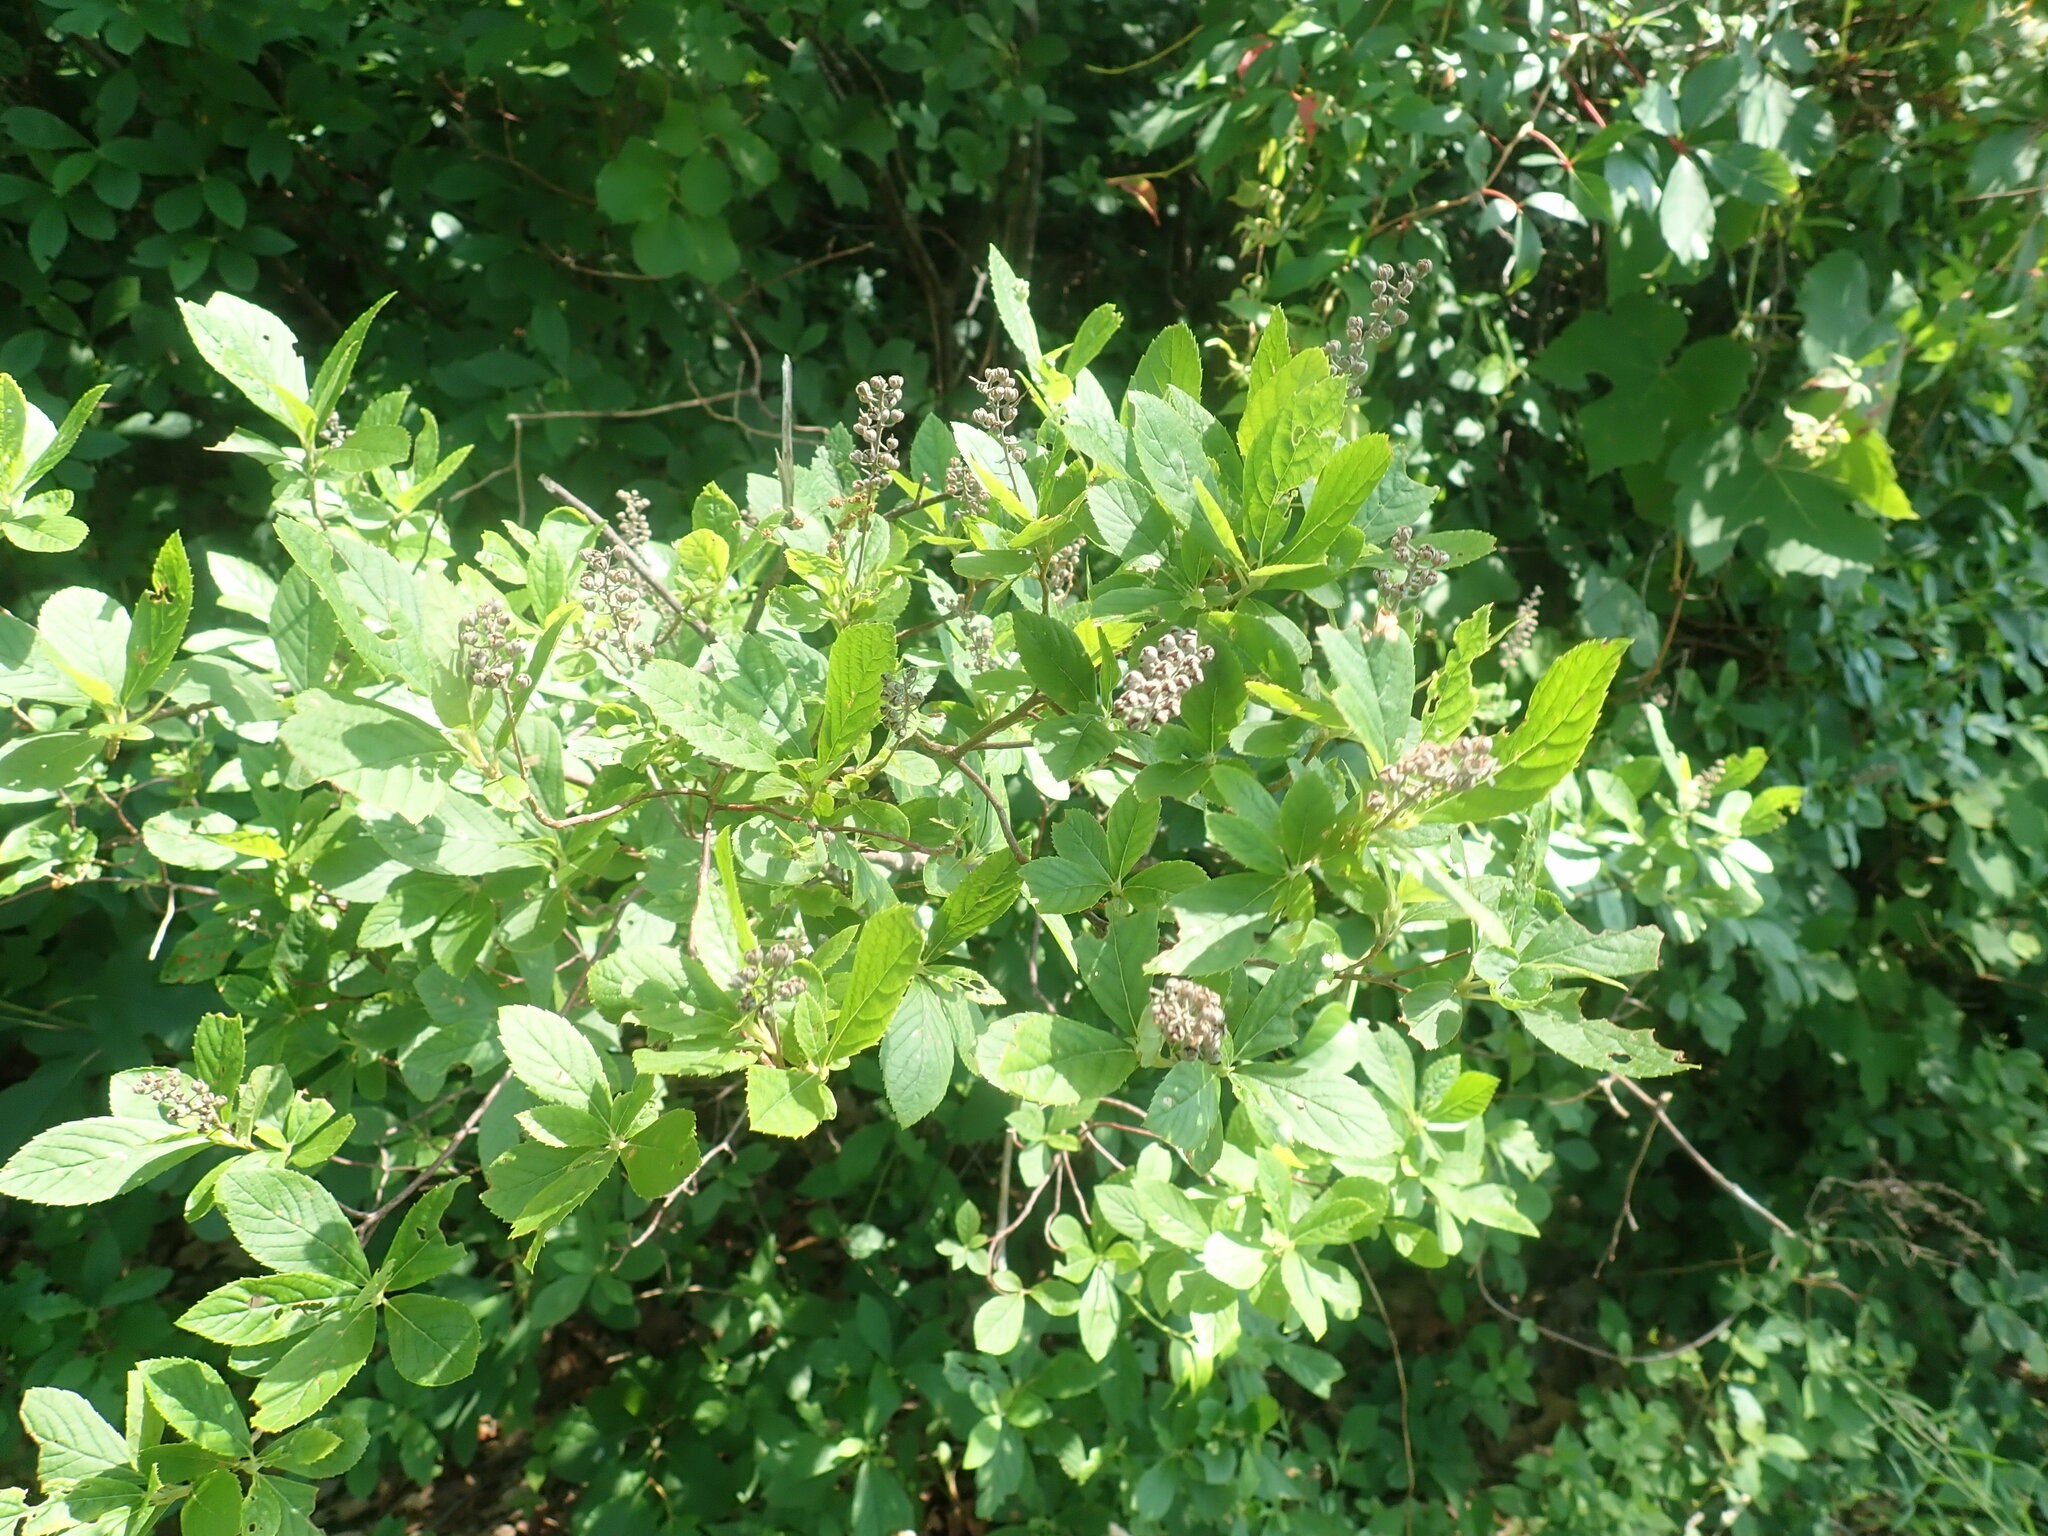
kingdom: Plantae
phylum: Tracheophyta
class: Magnoliopsida
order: Ericales
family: Clethraceae
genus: Clethra
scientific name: Clethra alnifolia
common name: Sweet pepperbush
